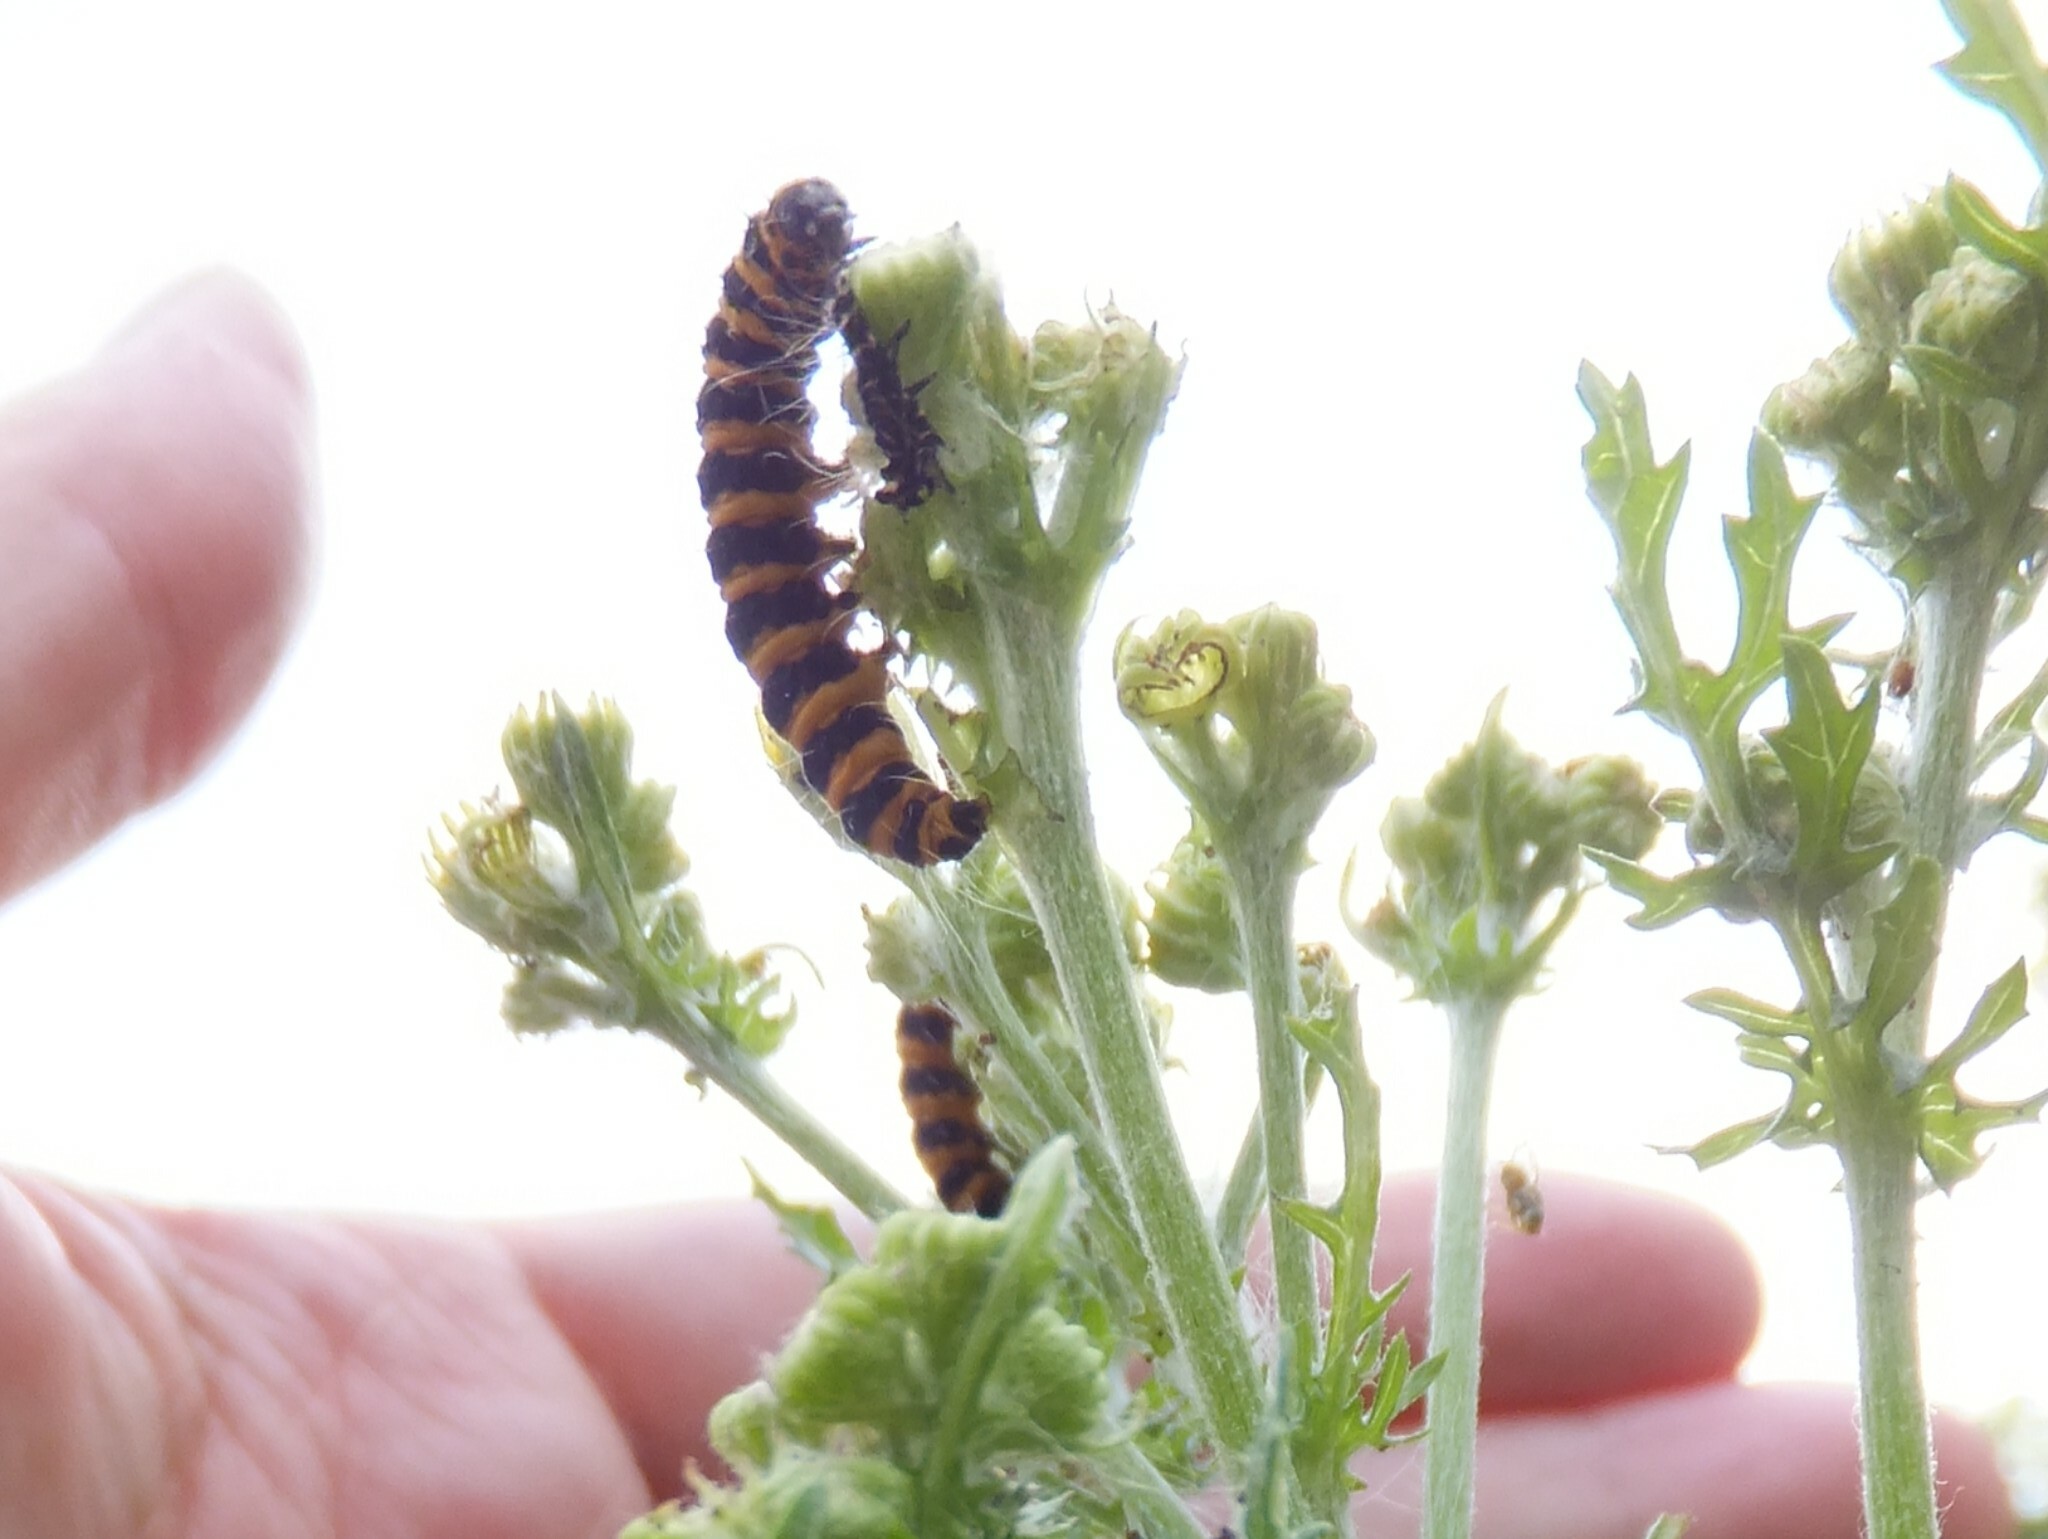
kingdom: Animalia
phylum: Arthropoda
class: Insecta
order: Lepidoptera
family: Erebidae
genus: Tyria
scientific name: Tyria jacobaeae
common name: Cinnabar
